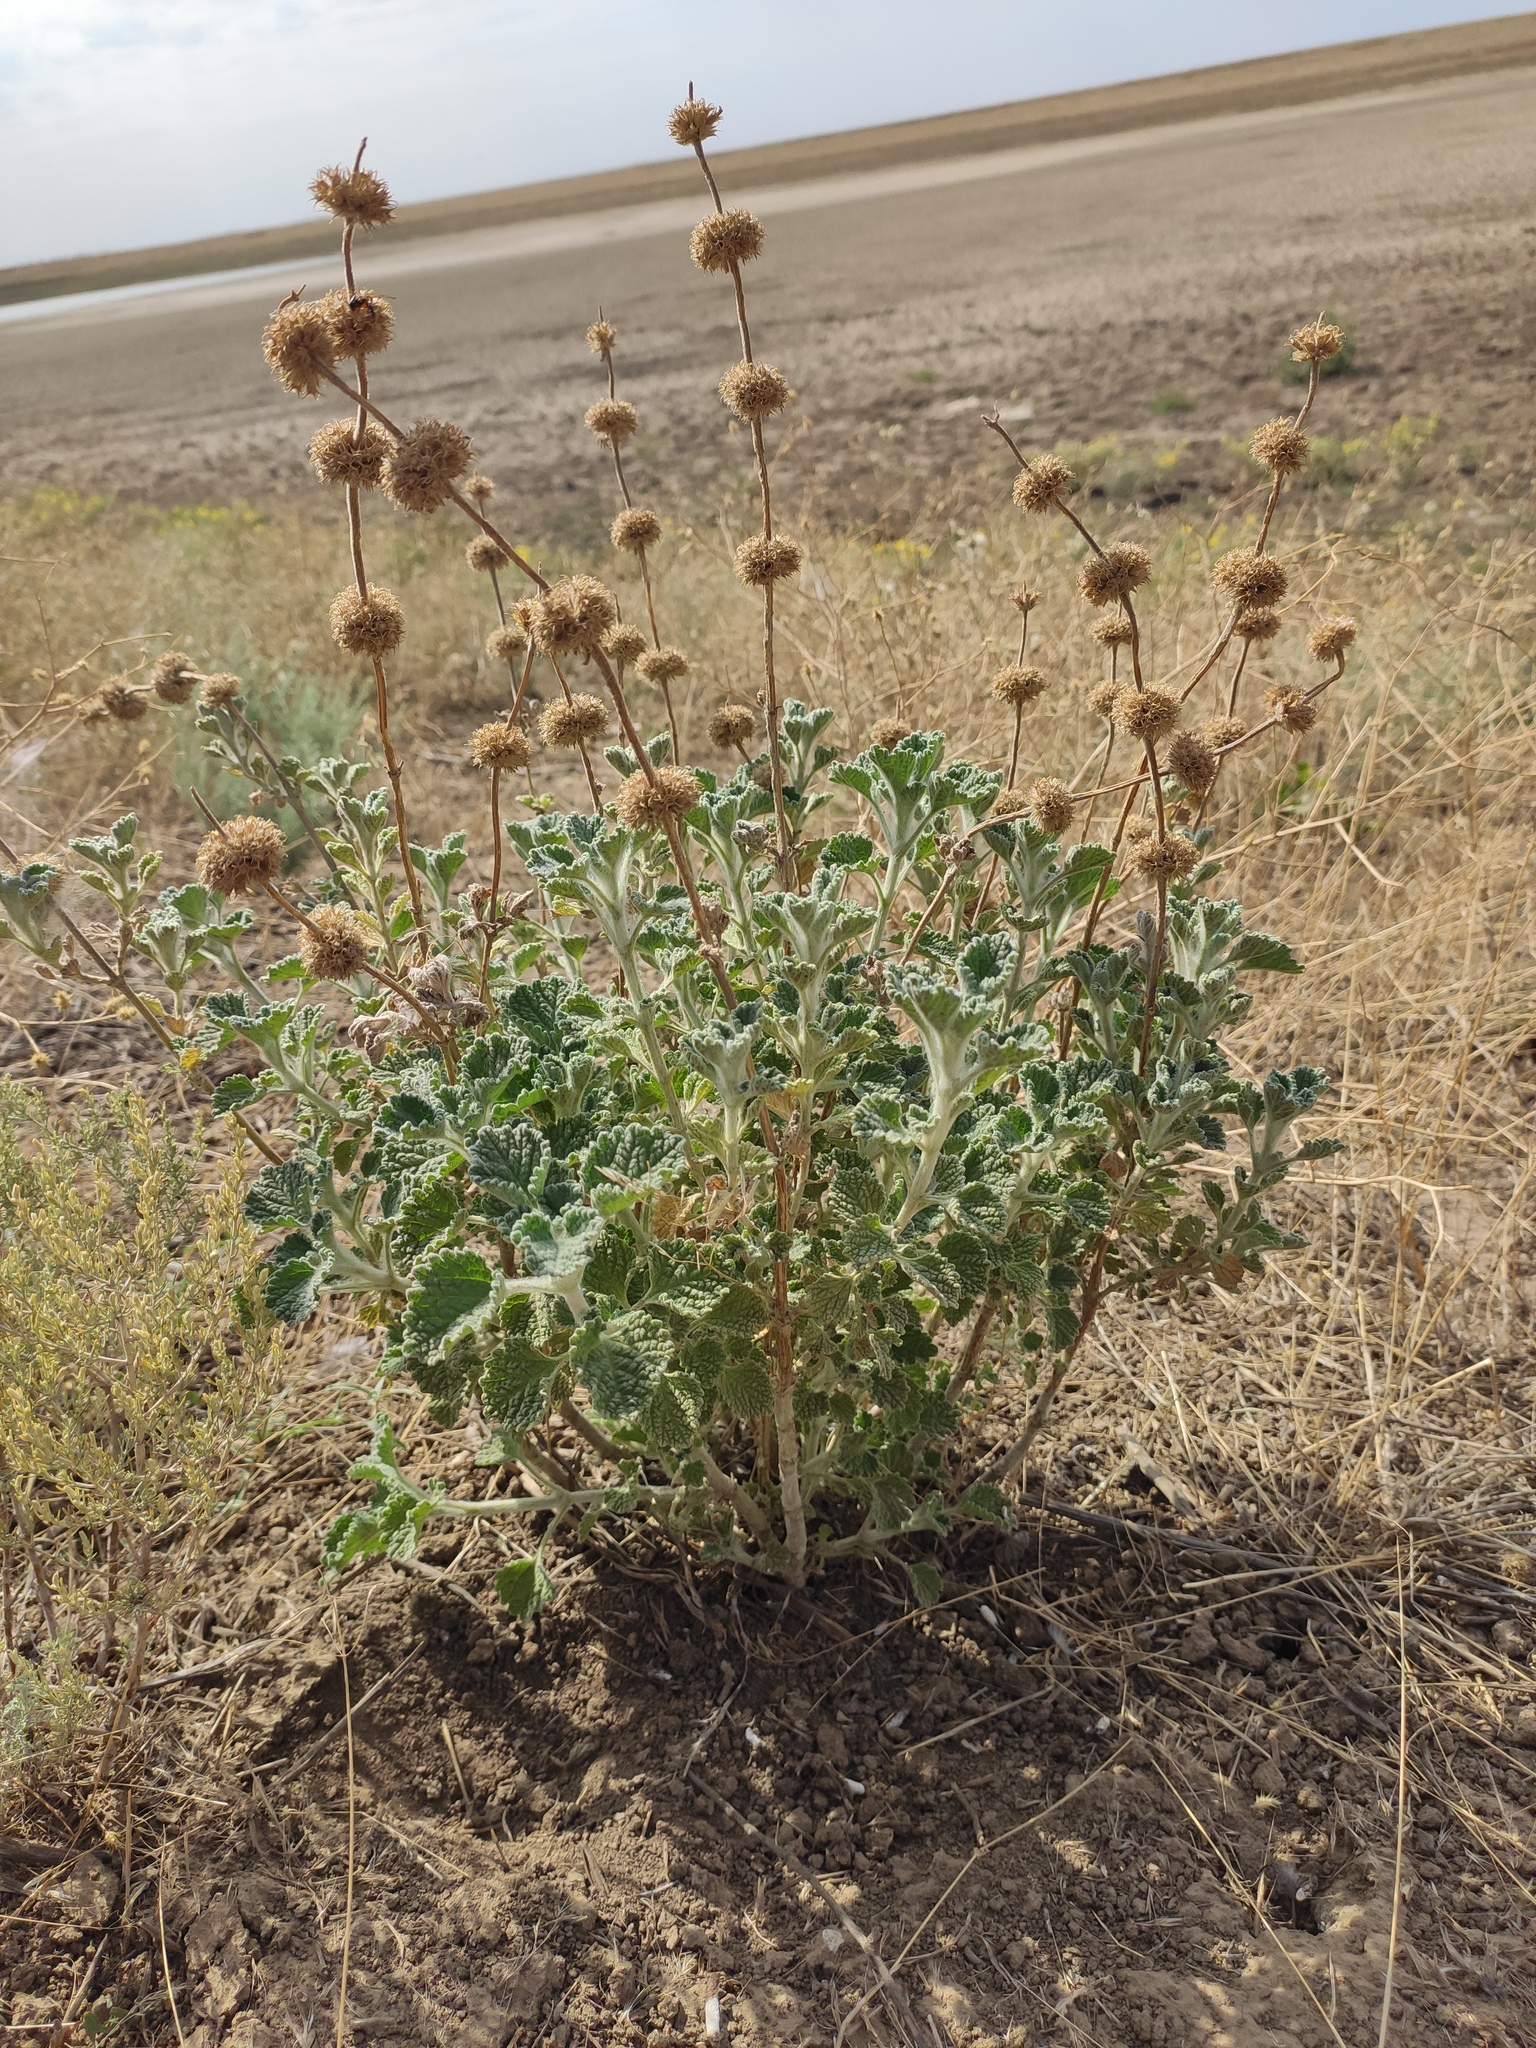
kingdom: Plantae
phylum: Tracheophyta
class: Magnoliopsida
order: Lamiales
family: Lamiaceae
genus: Marrubium
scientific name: Marrubium vulgare
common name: Horehound
